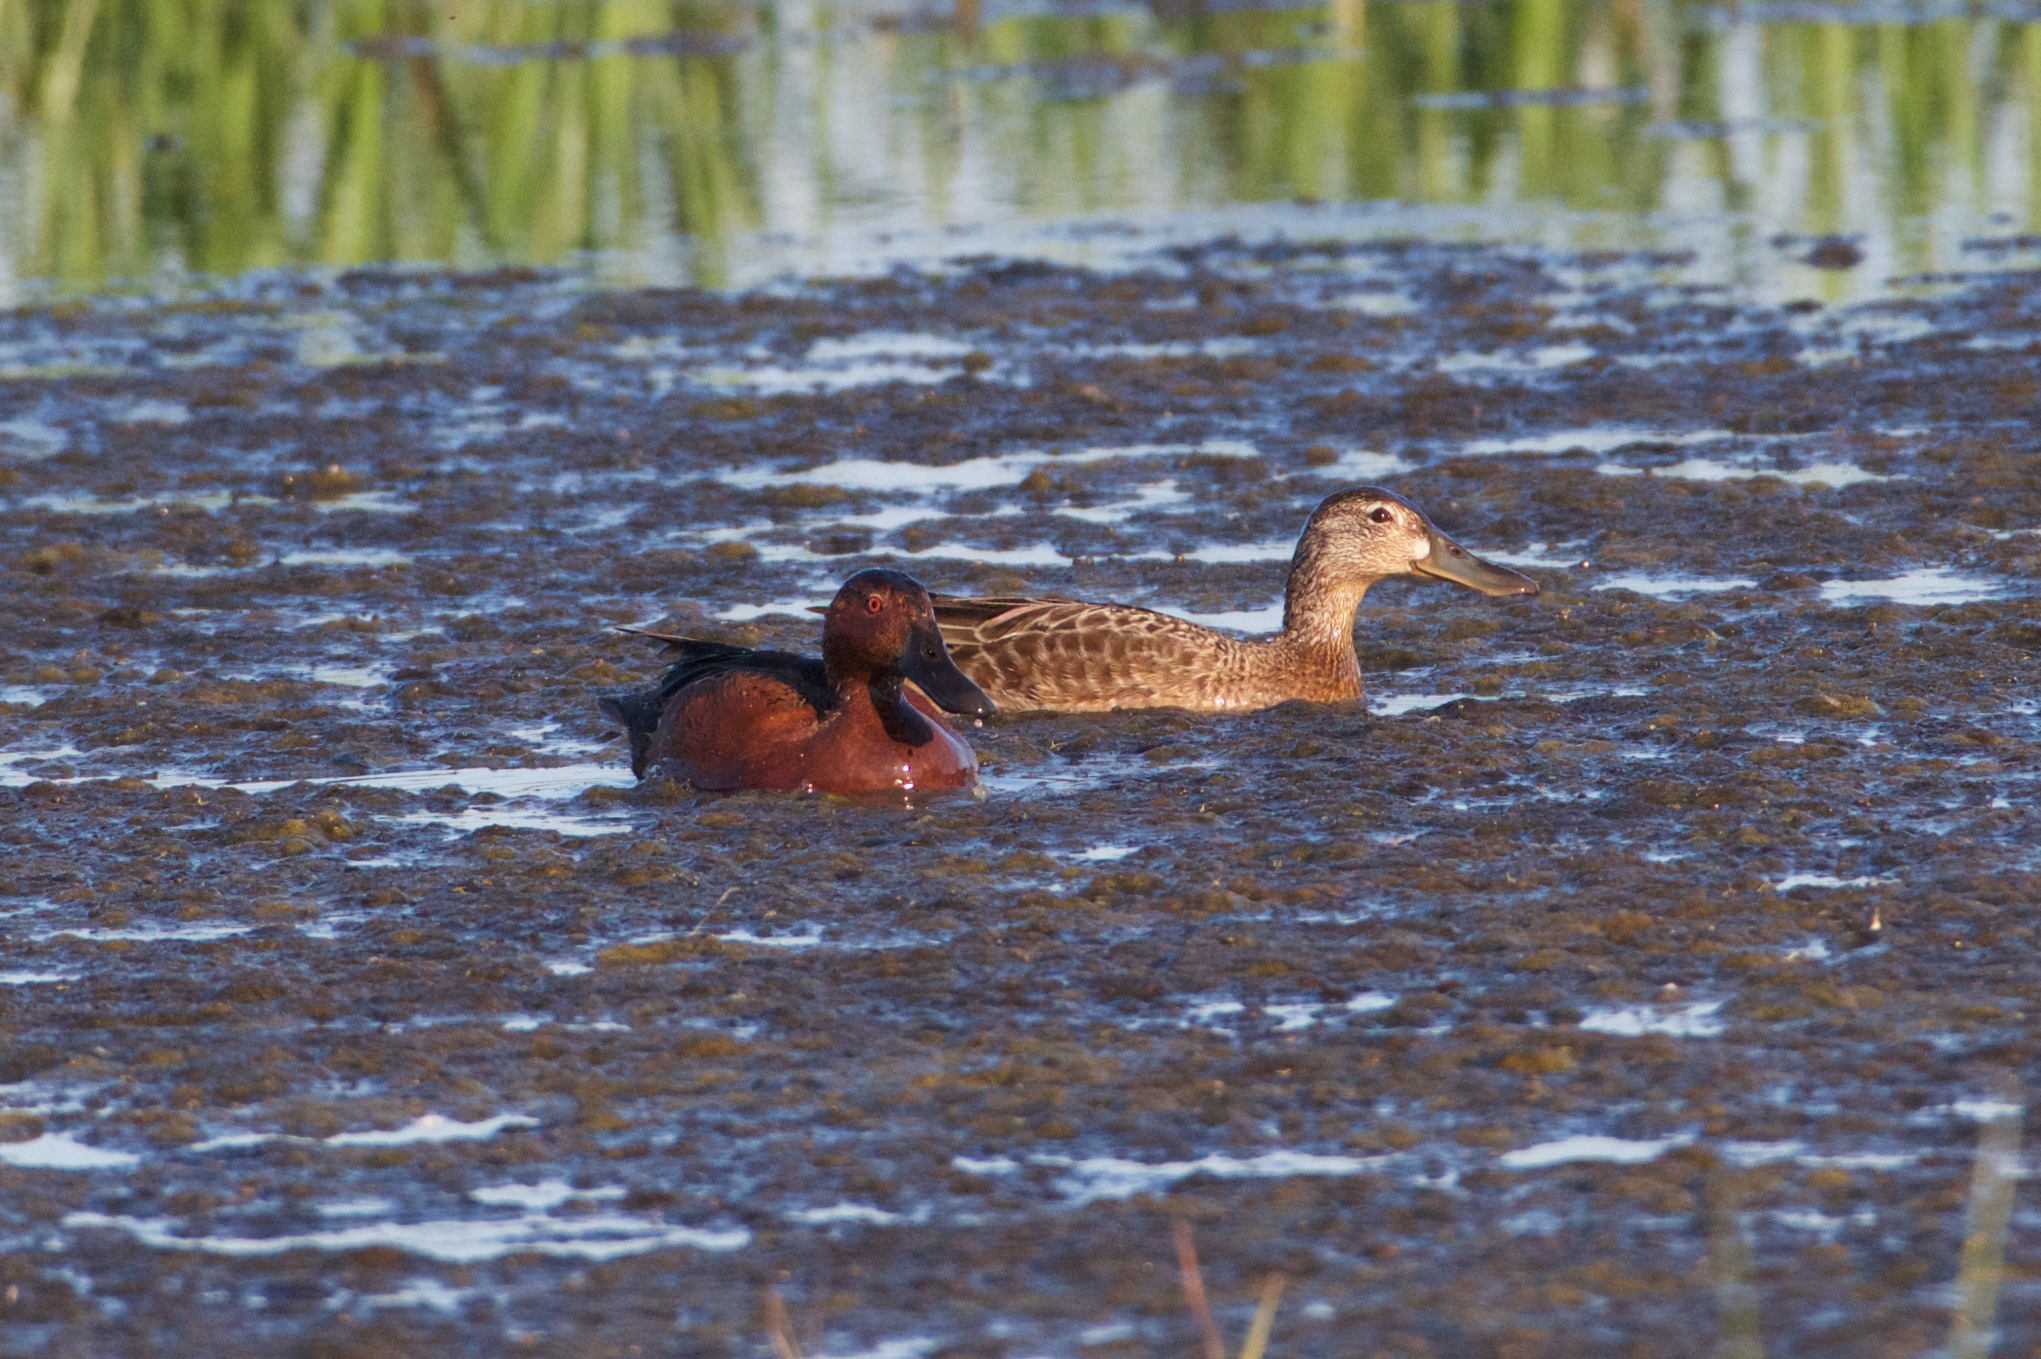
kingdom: Animalia
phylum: Chordata
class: Aves
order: Anseriformes
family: Anatidae
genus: Spatula
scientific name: Spatula cyanoptera
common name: Cinnamon teal
